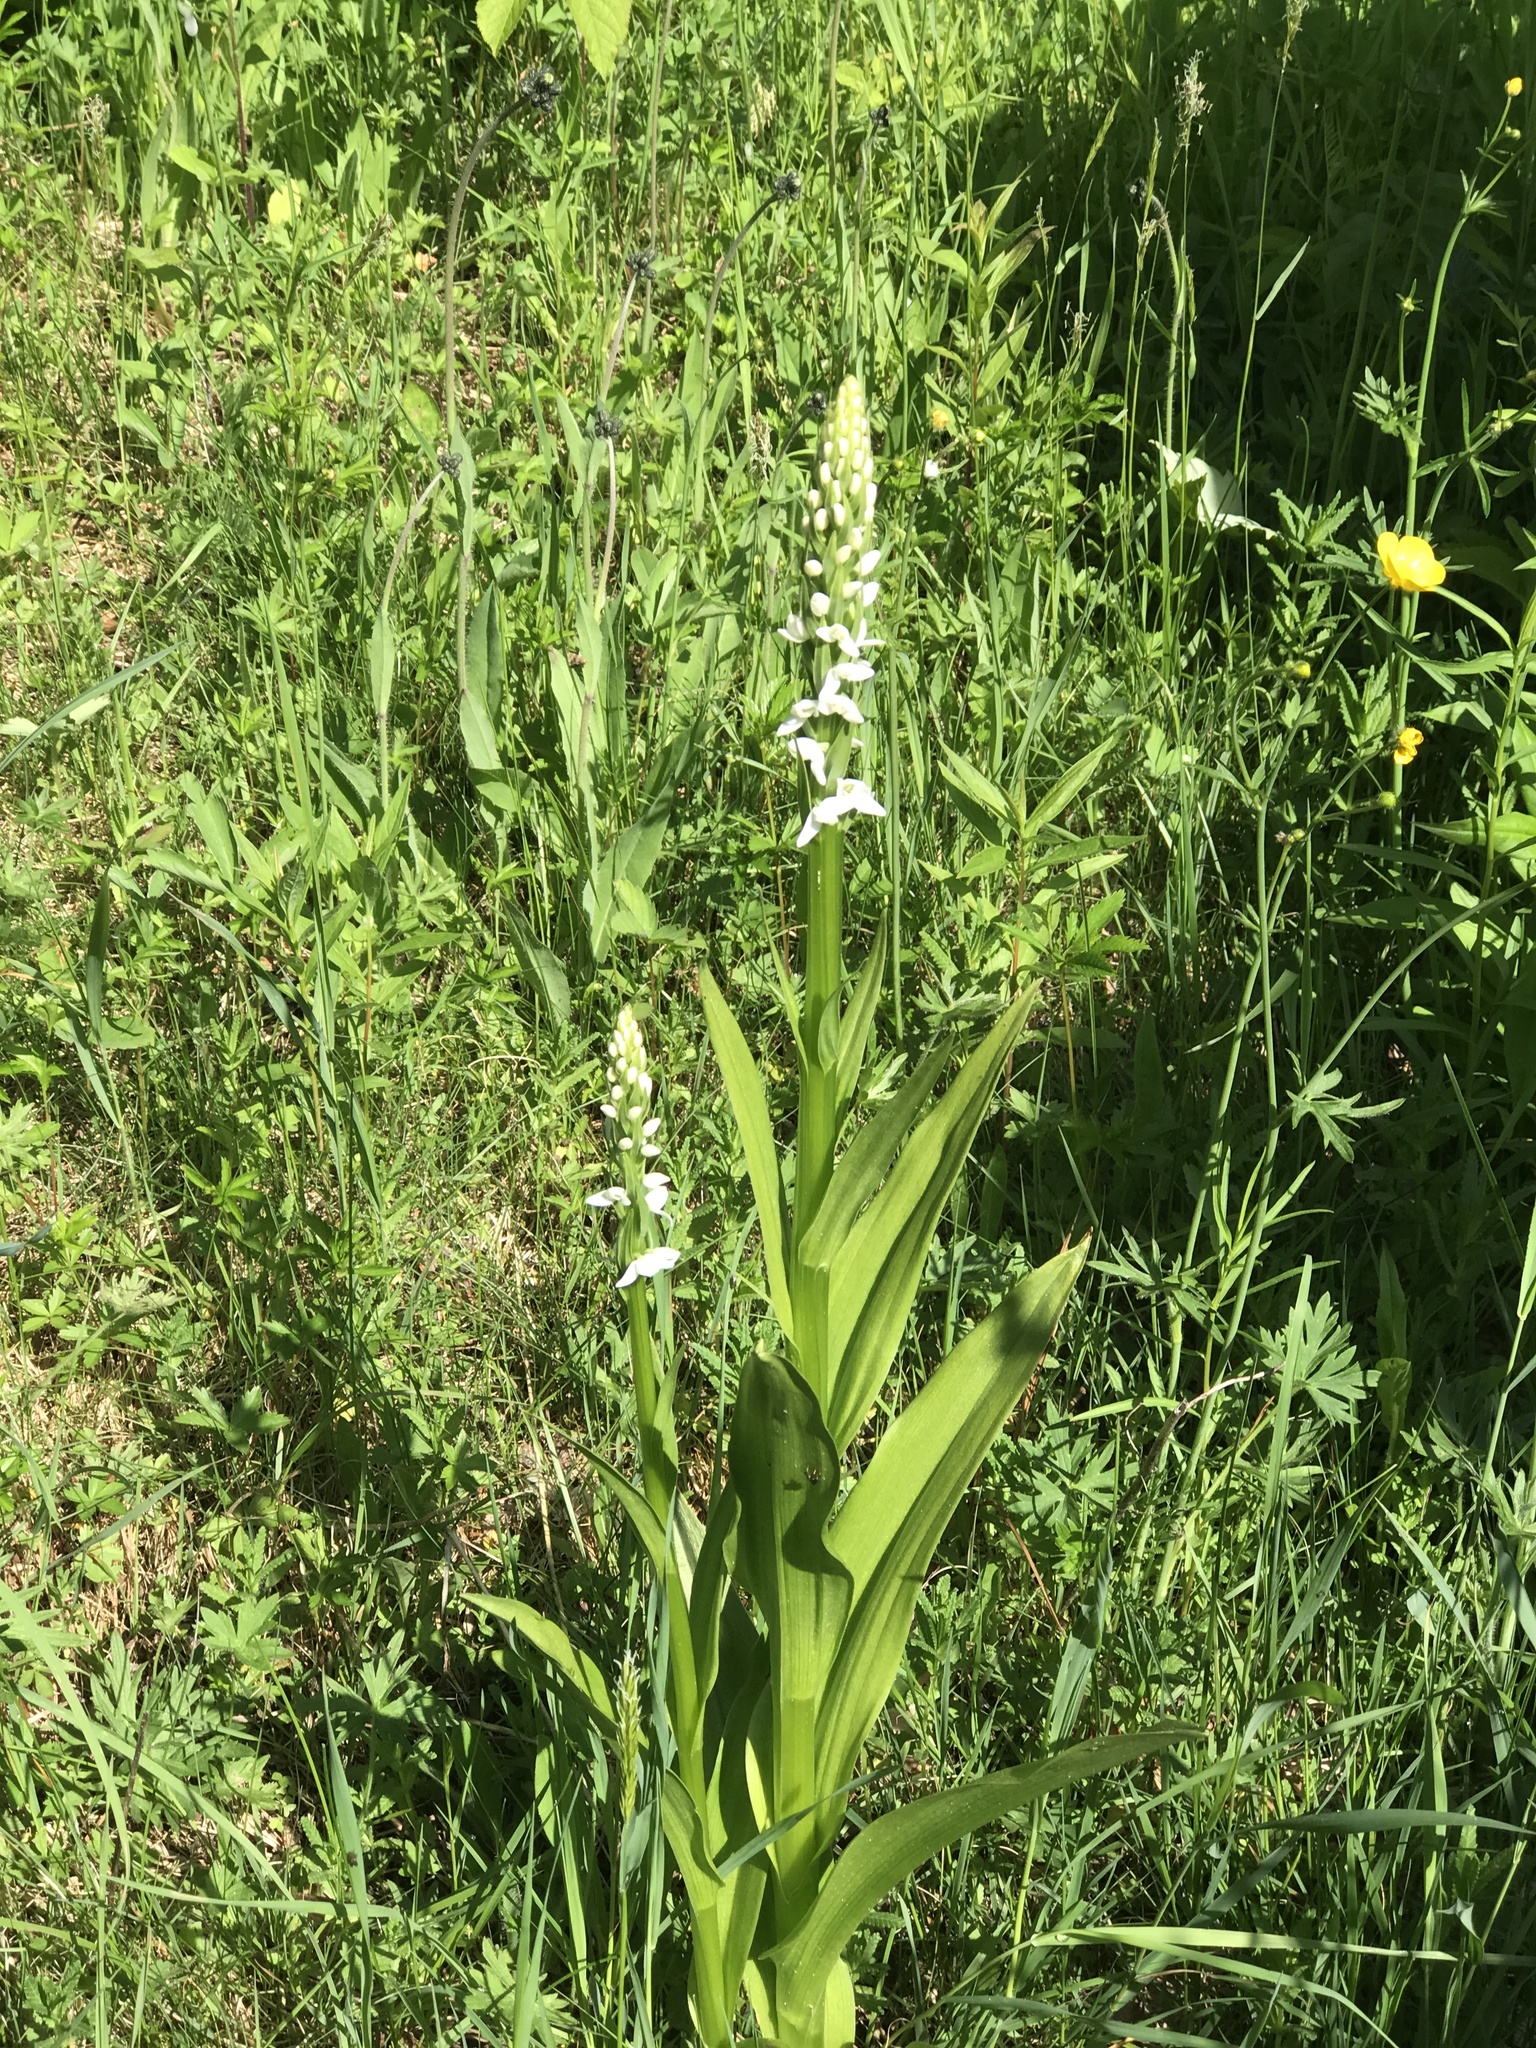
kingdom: Plantae
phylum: Tracheophyta
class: Liliopsida
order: Asparagales
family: Orchidaceae
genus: Platanthera
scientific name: Platanthera dilatata
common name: Bog candles
